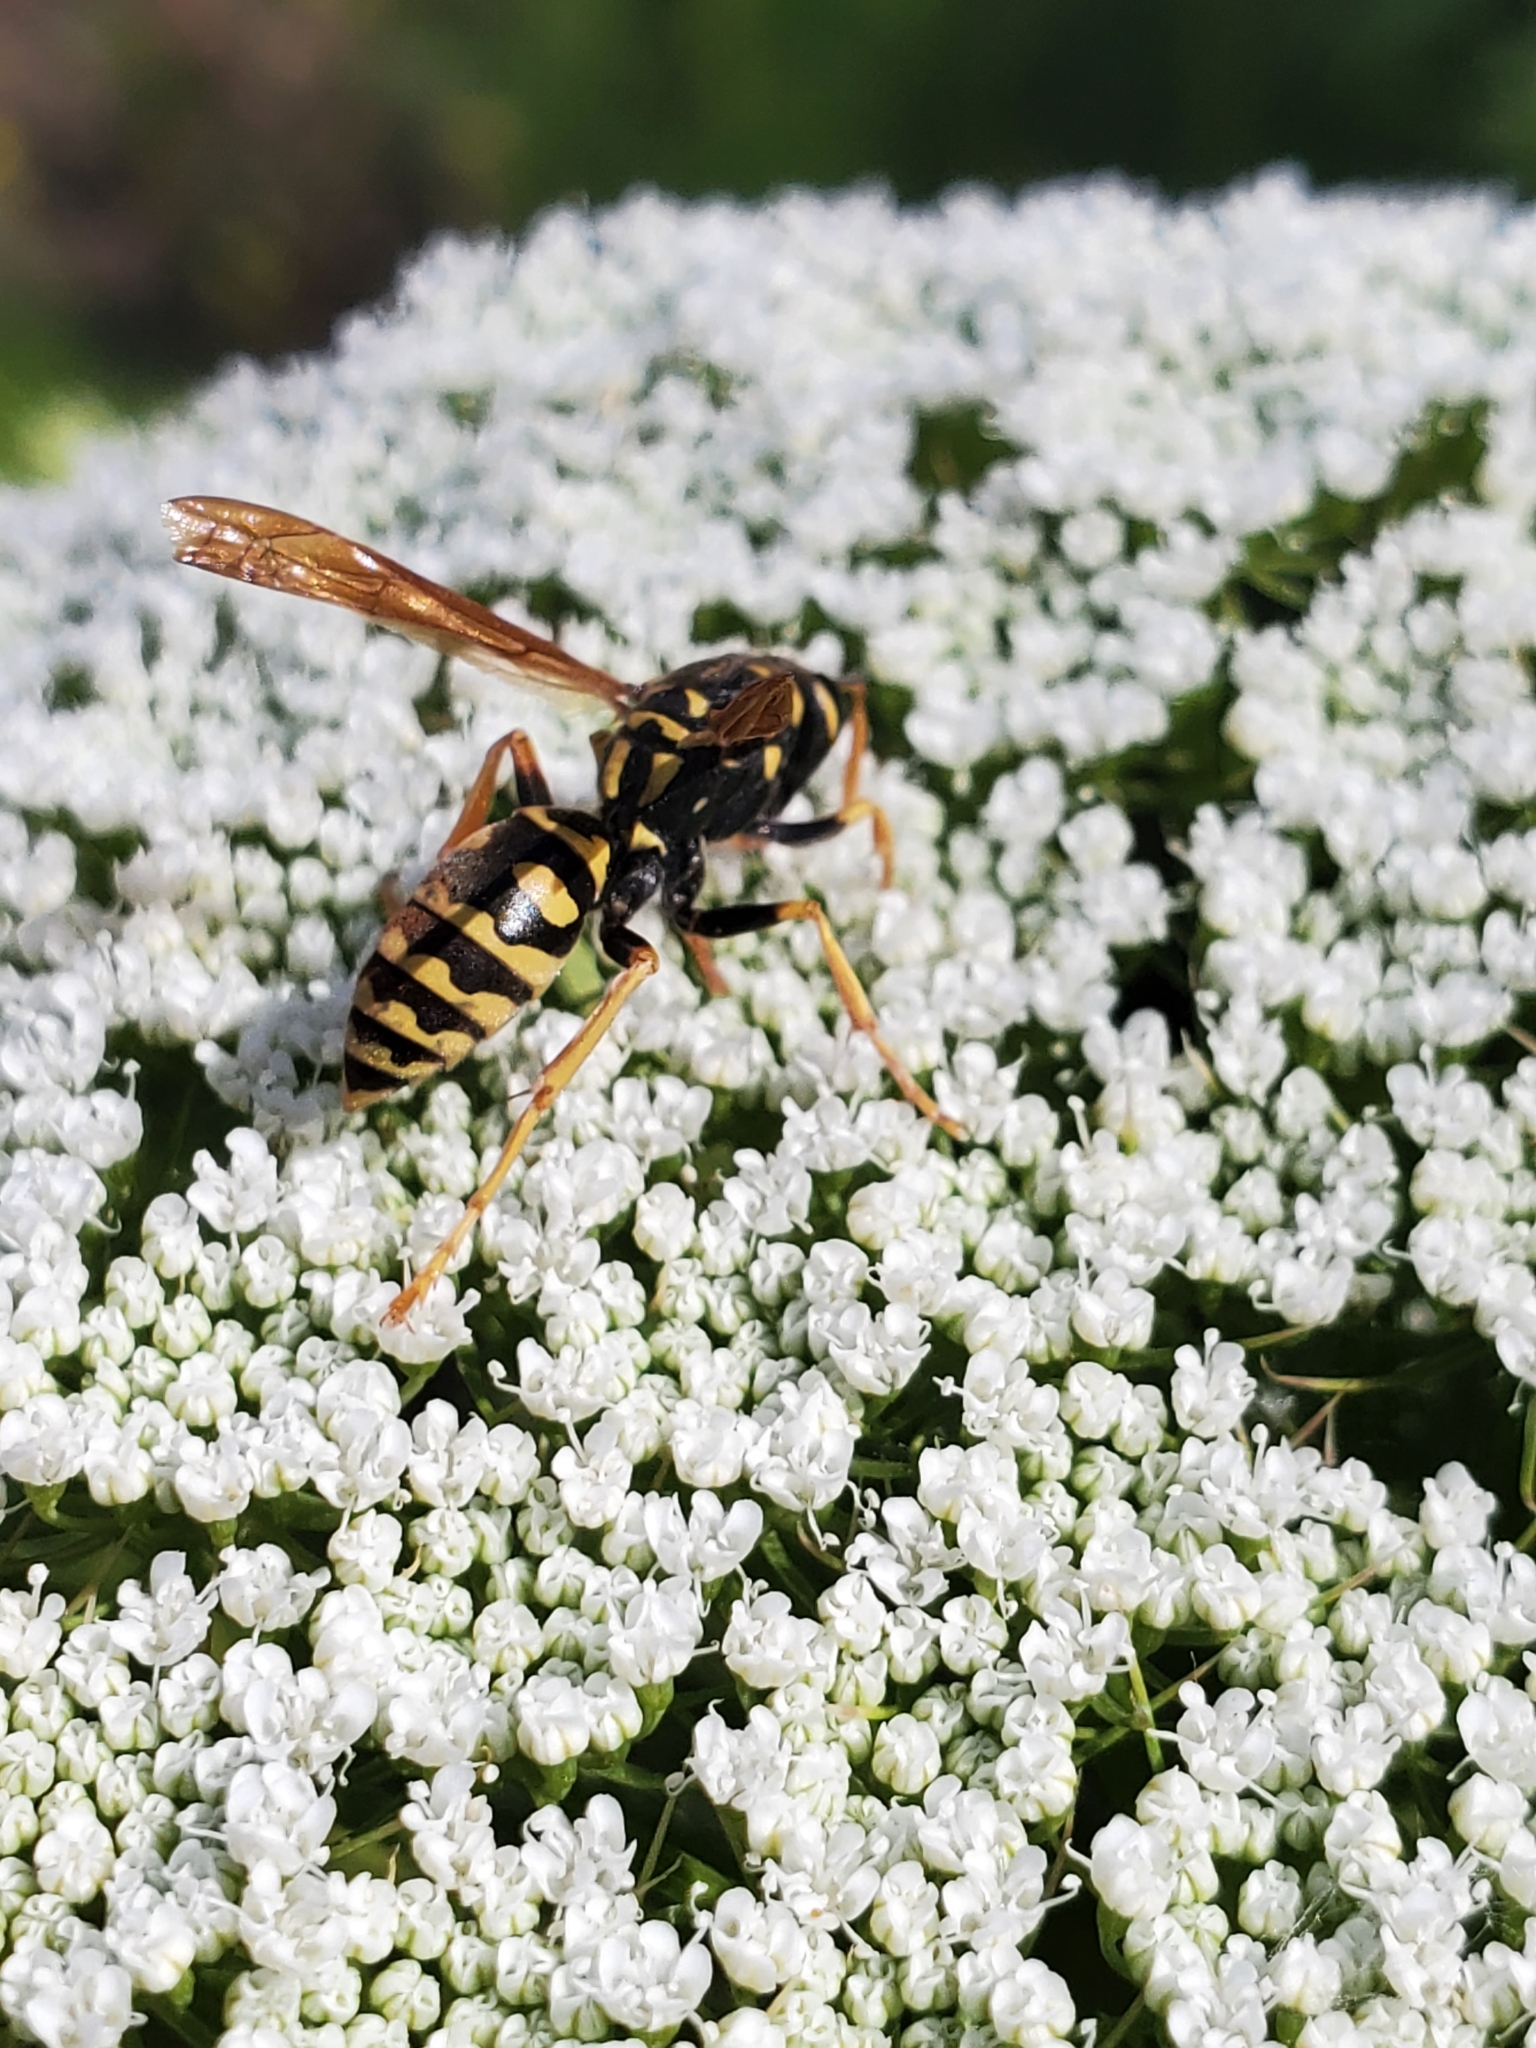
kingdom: Animalia
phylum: Arthropoda
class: Insecta
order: Hymenoptera
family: Eumenidae
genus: Polistes
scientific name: Polistes dominula
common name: Paper wasp
